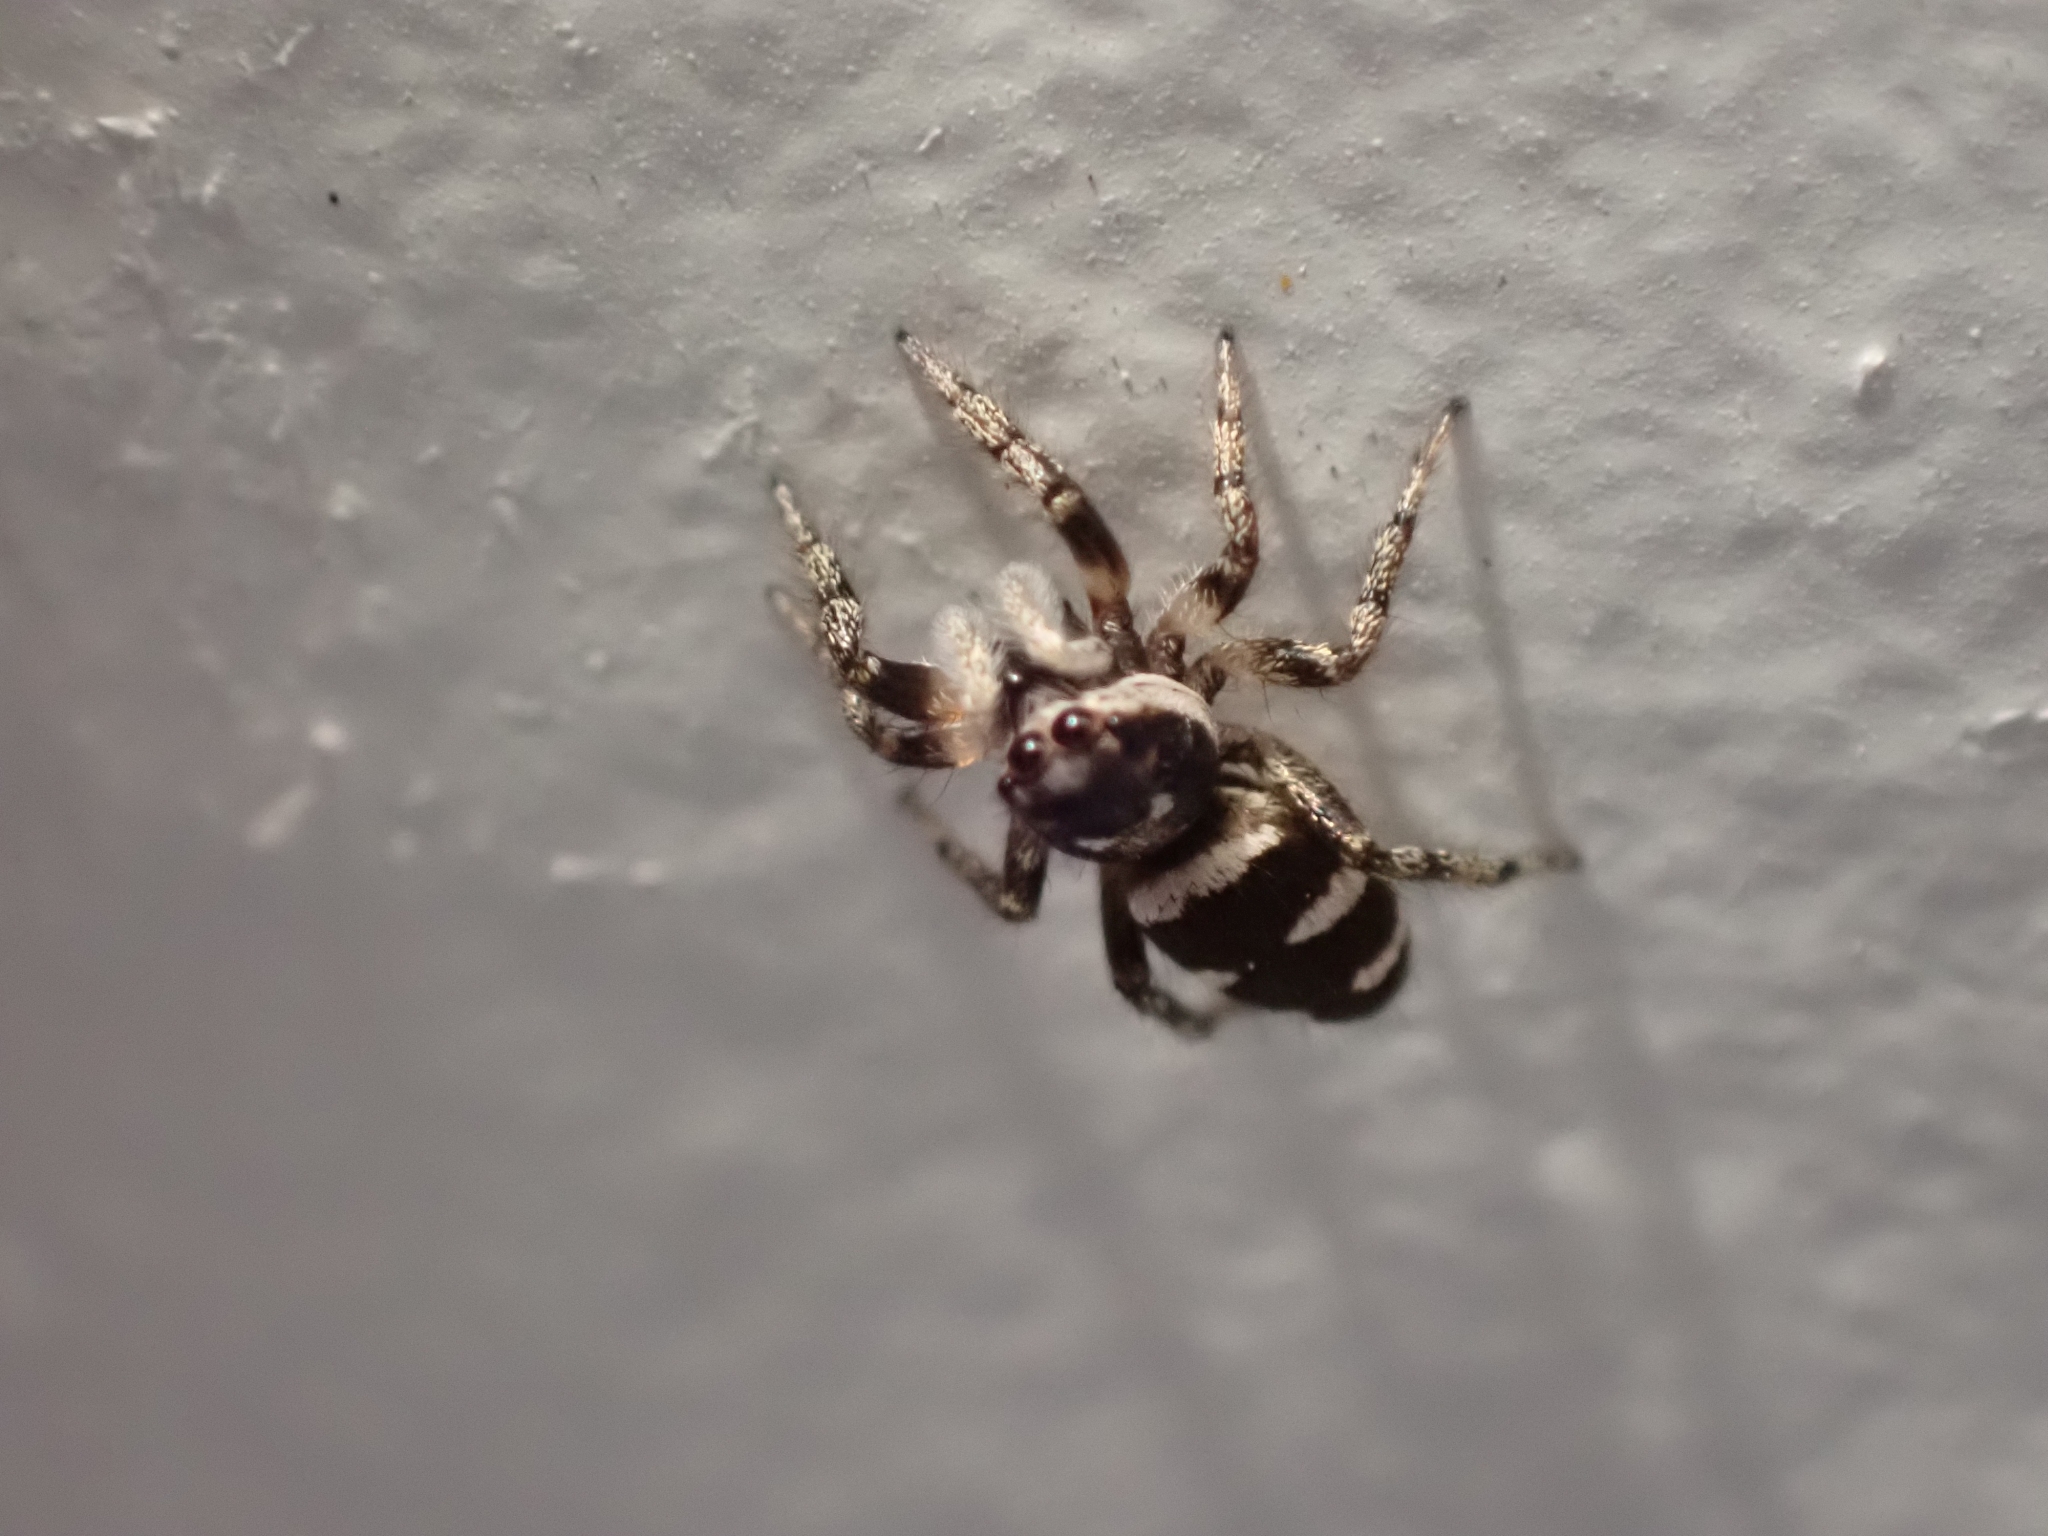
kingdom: Animalia
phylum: Arthropoda
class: Arachnida
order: Araneae
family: Salticidae
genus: Salticus
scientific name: Salticus scenicus
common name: Zebra jumper
